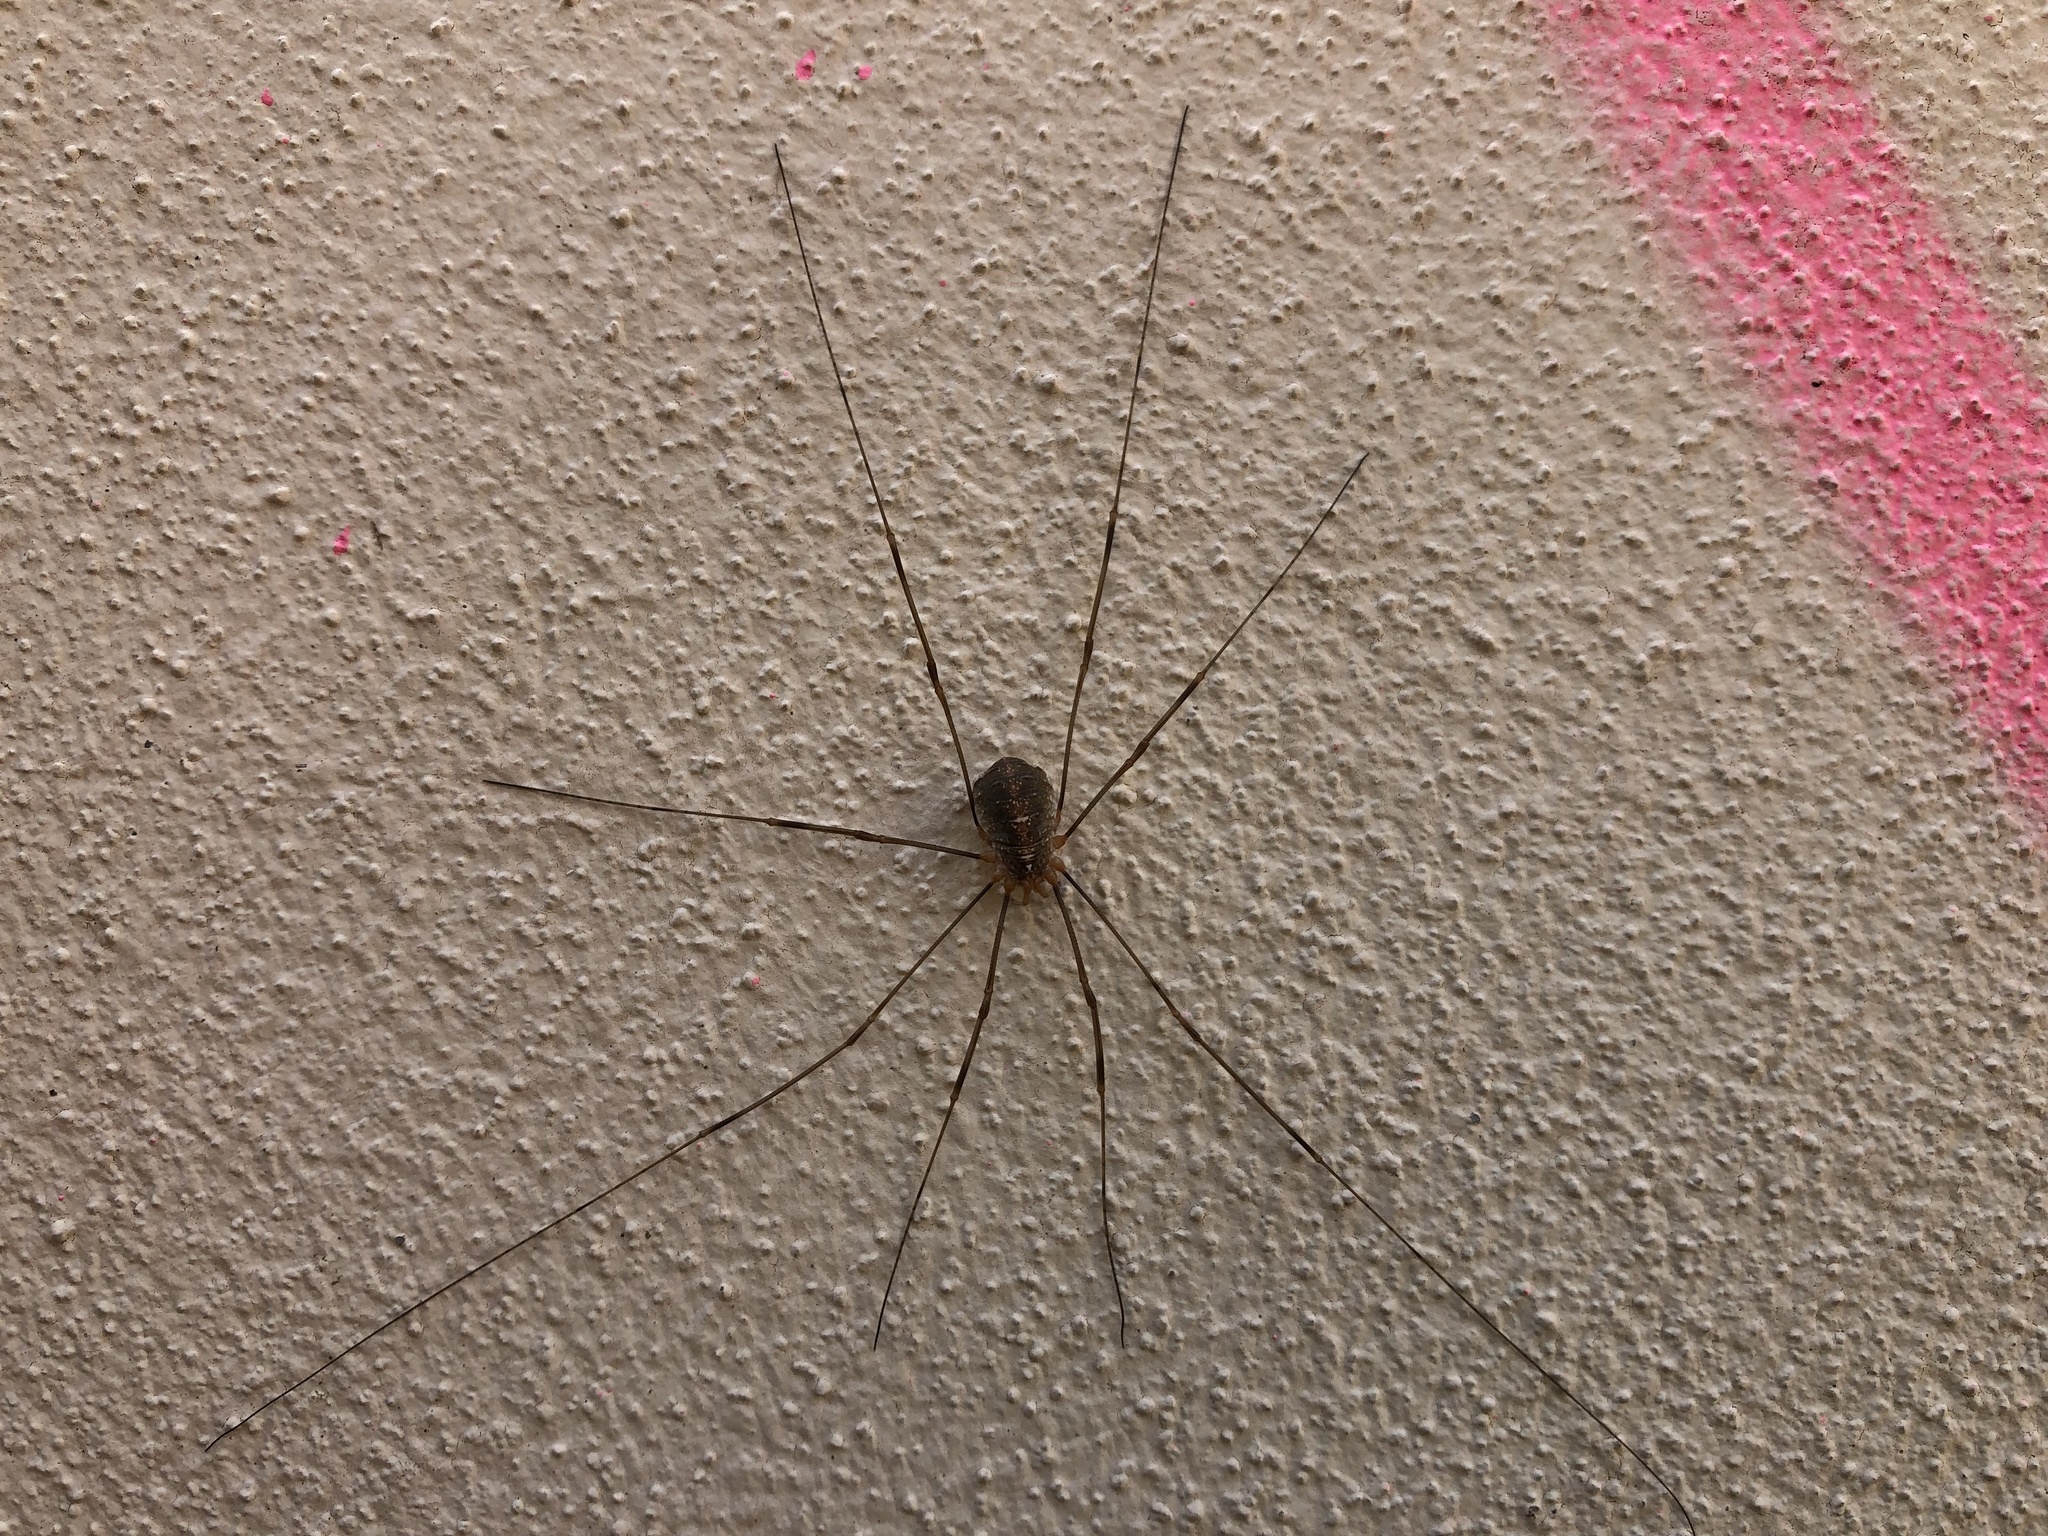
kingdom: Animalia
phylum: Arthropoda
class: Arachnida
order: Opiliones
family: Phalangiidae
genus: Opilio
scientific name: Opilio canestrinii
